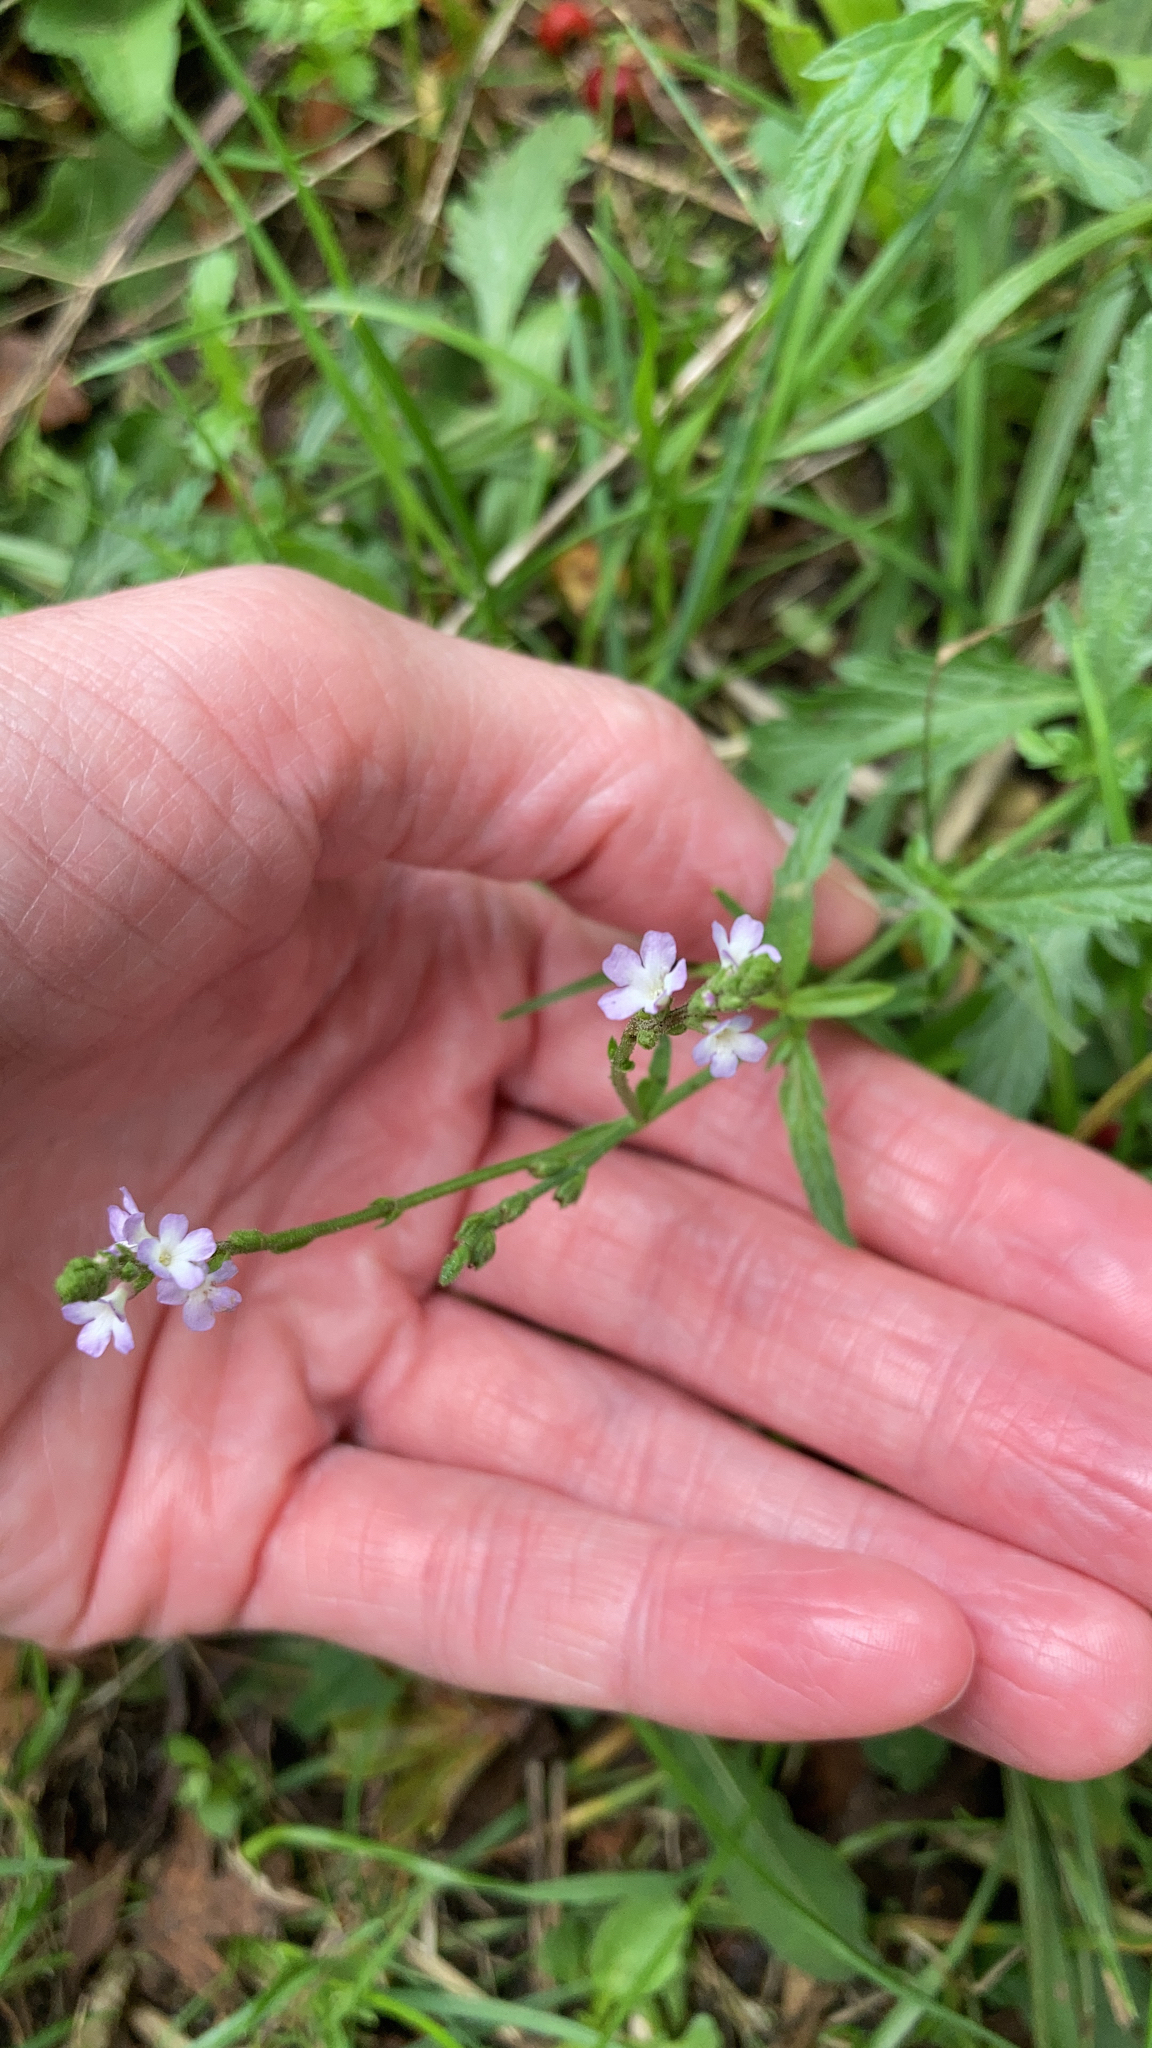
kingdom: Plantae
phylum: Tracheophyta
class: Magnoliopsida
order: Lamiales
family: Verbenaceae
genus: Verbena
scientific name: Verbena officinalis
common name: Vervain
